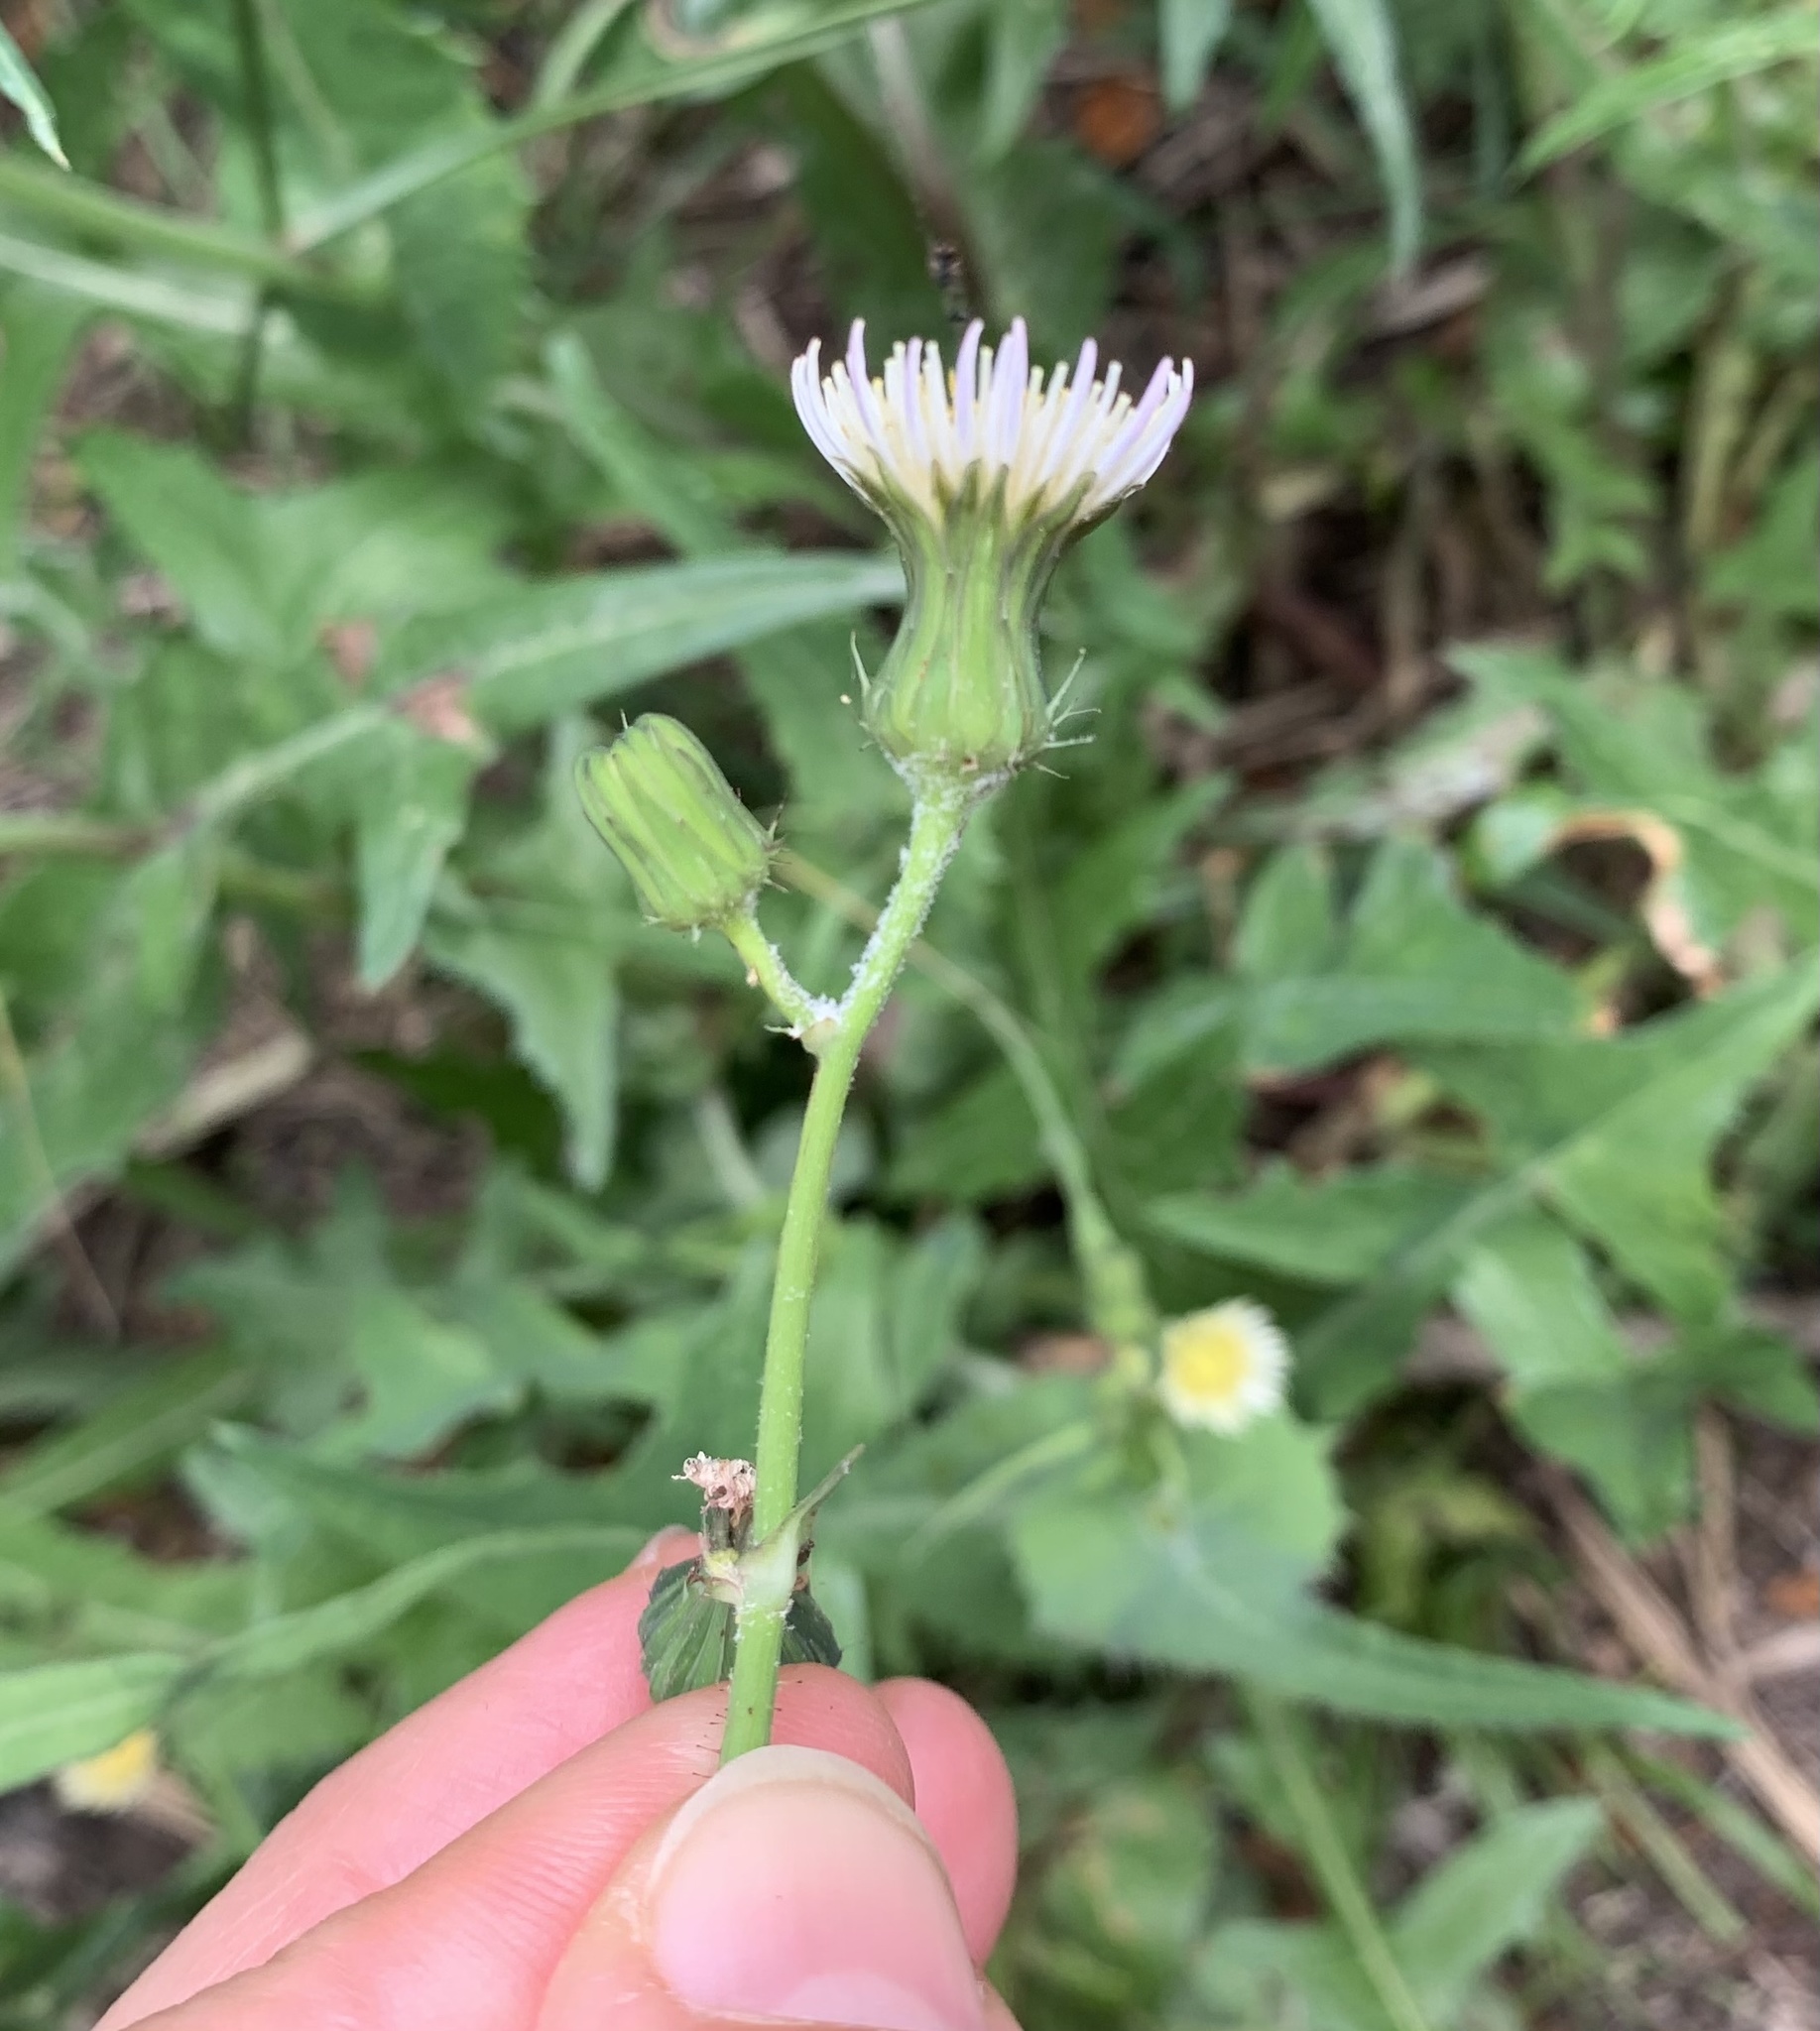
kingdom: Plantae
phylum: Tracheophyta
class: Magnoliopsida
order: Asterales
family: Asteraceae
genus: Sonchus
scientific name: Sonchus oleraceus
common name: Common sowthistle
